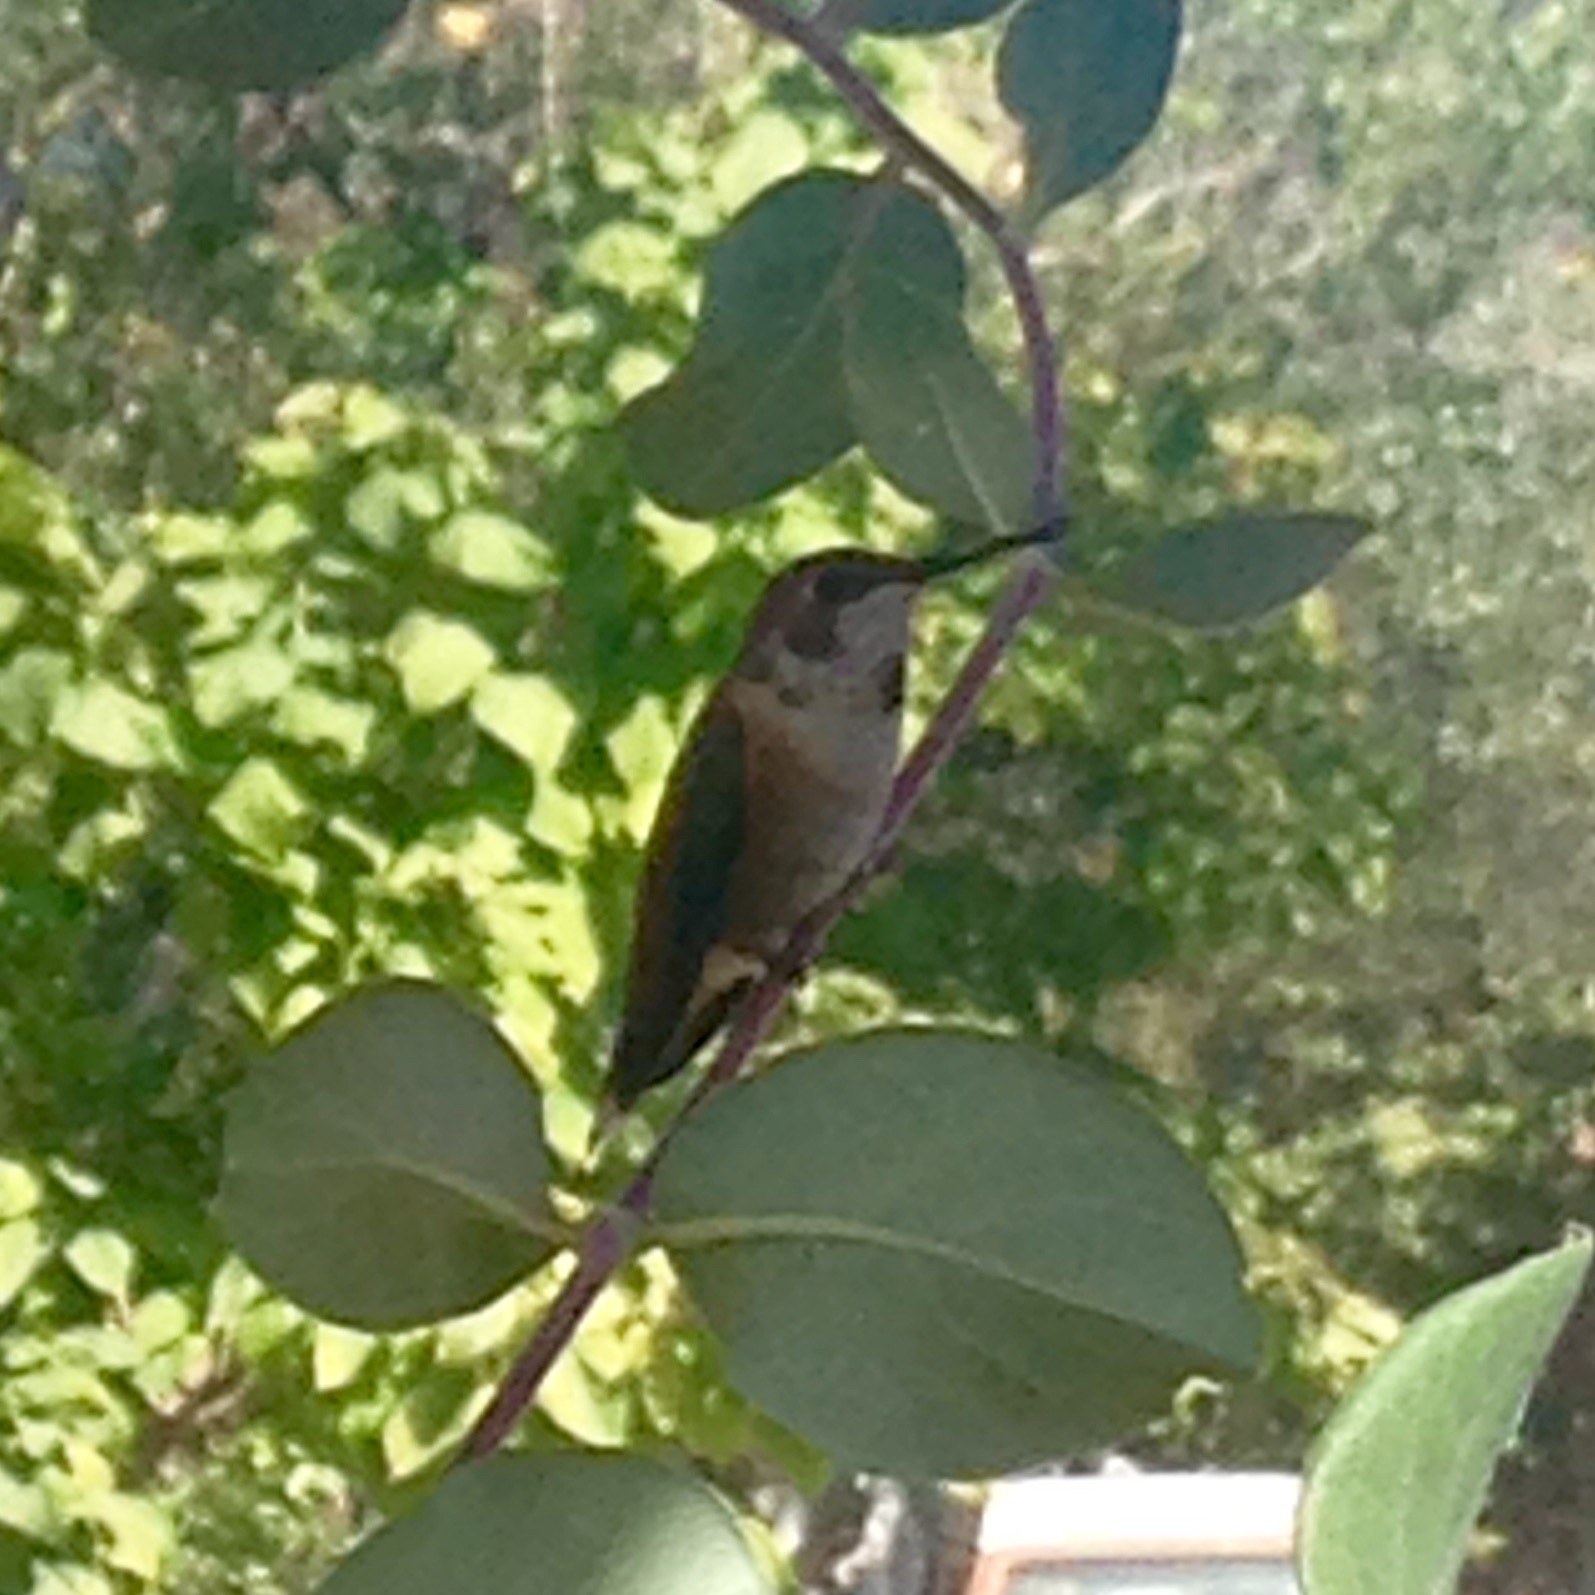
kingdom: Animalia
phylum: Chordata
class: Aves
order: Apodiformes
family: Trochilidae
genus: Selasphorus
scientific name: Selasphorus
